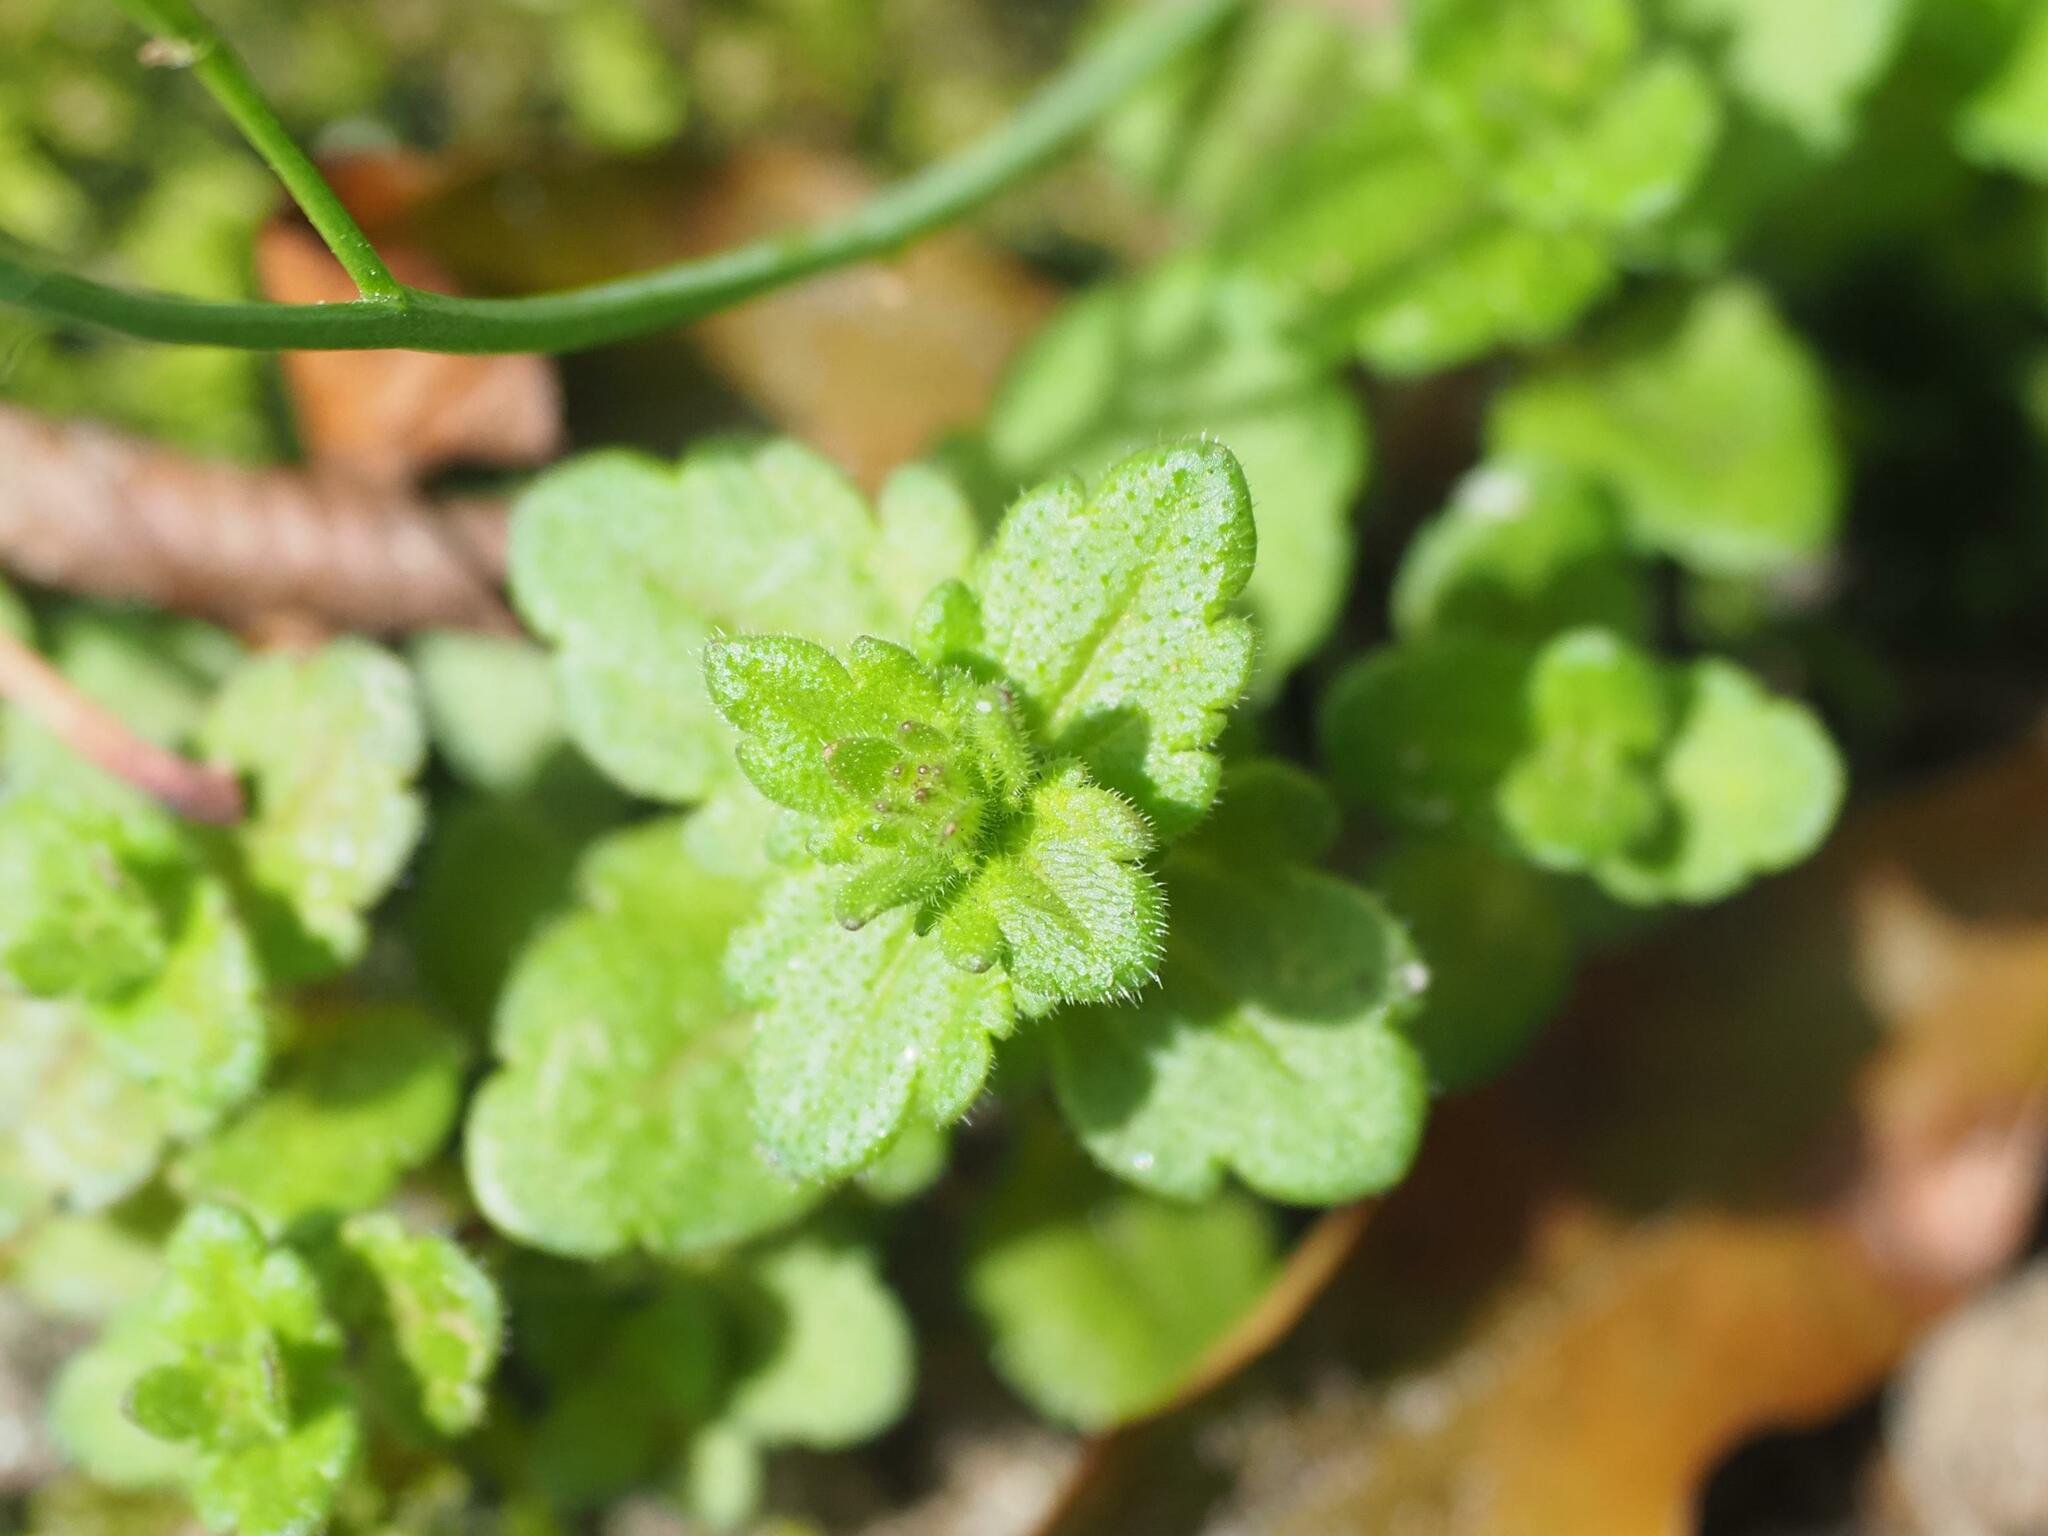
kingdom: Plantae
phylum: Tracheophyta
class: Magnoliopsida
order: Lamiales
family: Plantaginaceae
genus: Veronica
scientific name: Veronica arvensis
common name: Corn speedwell
